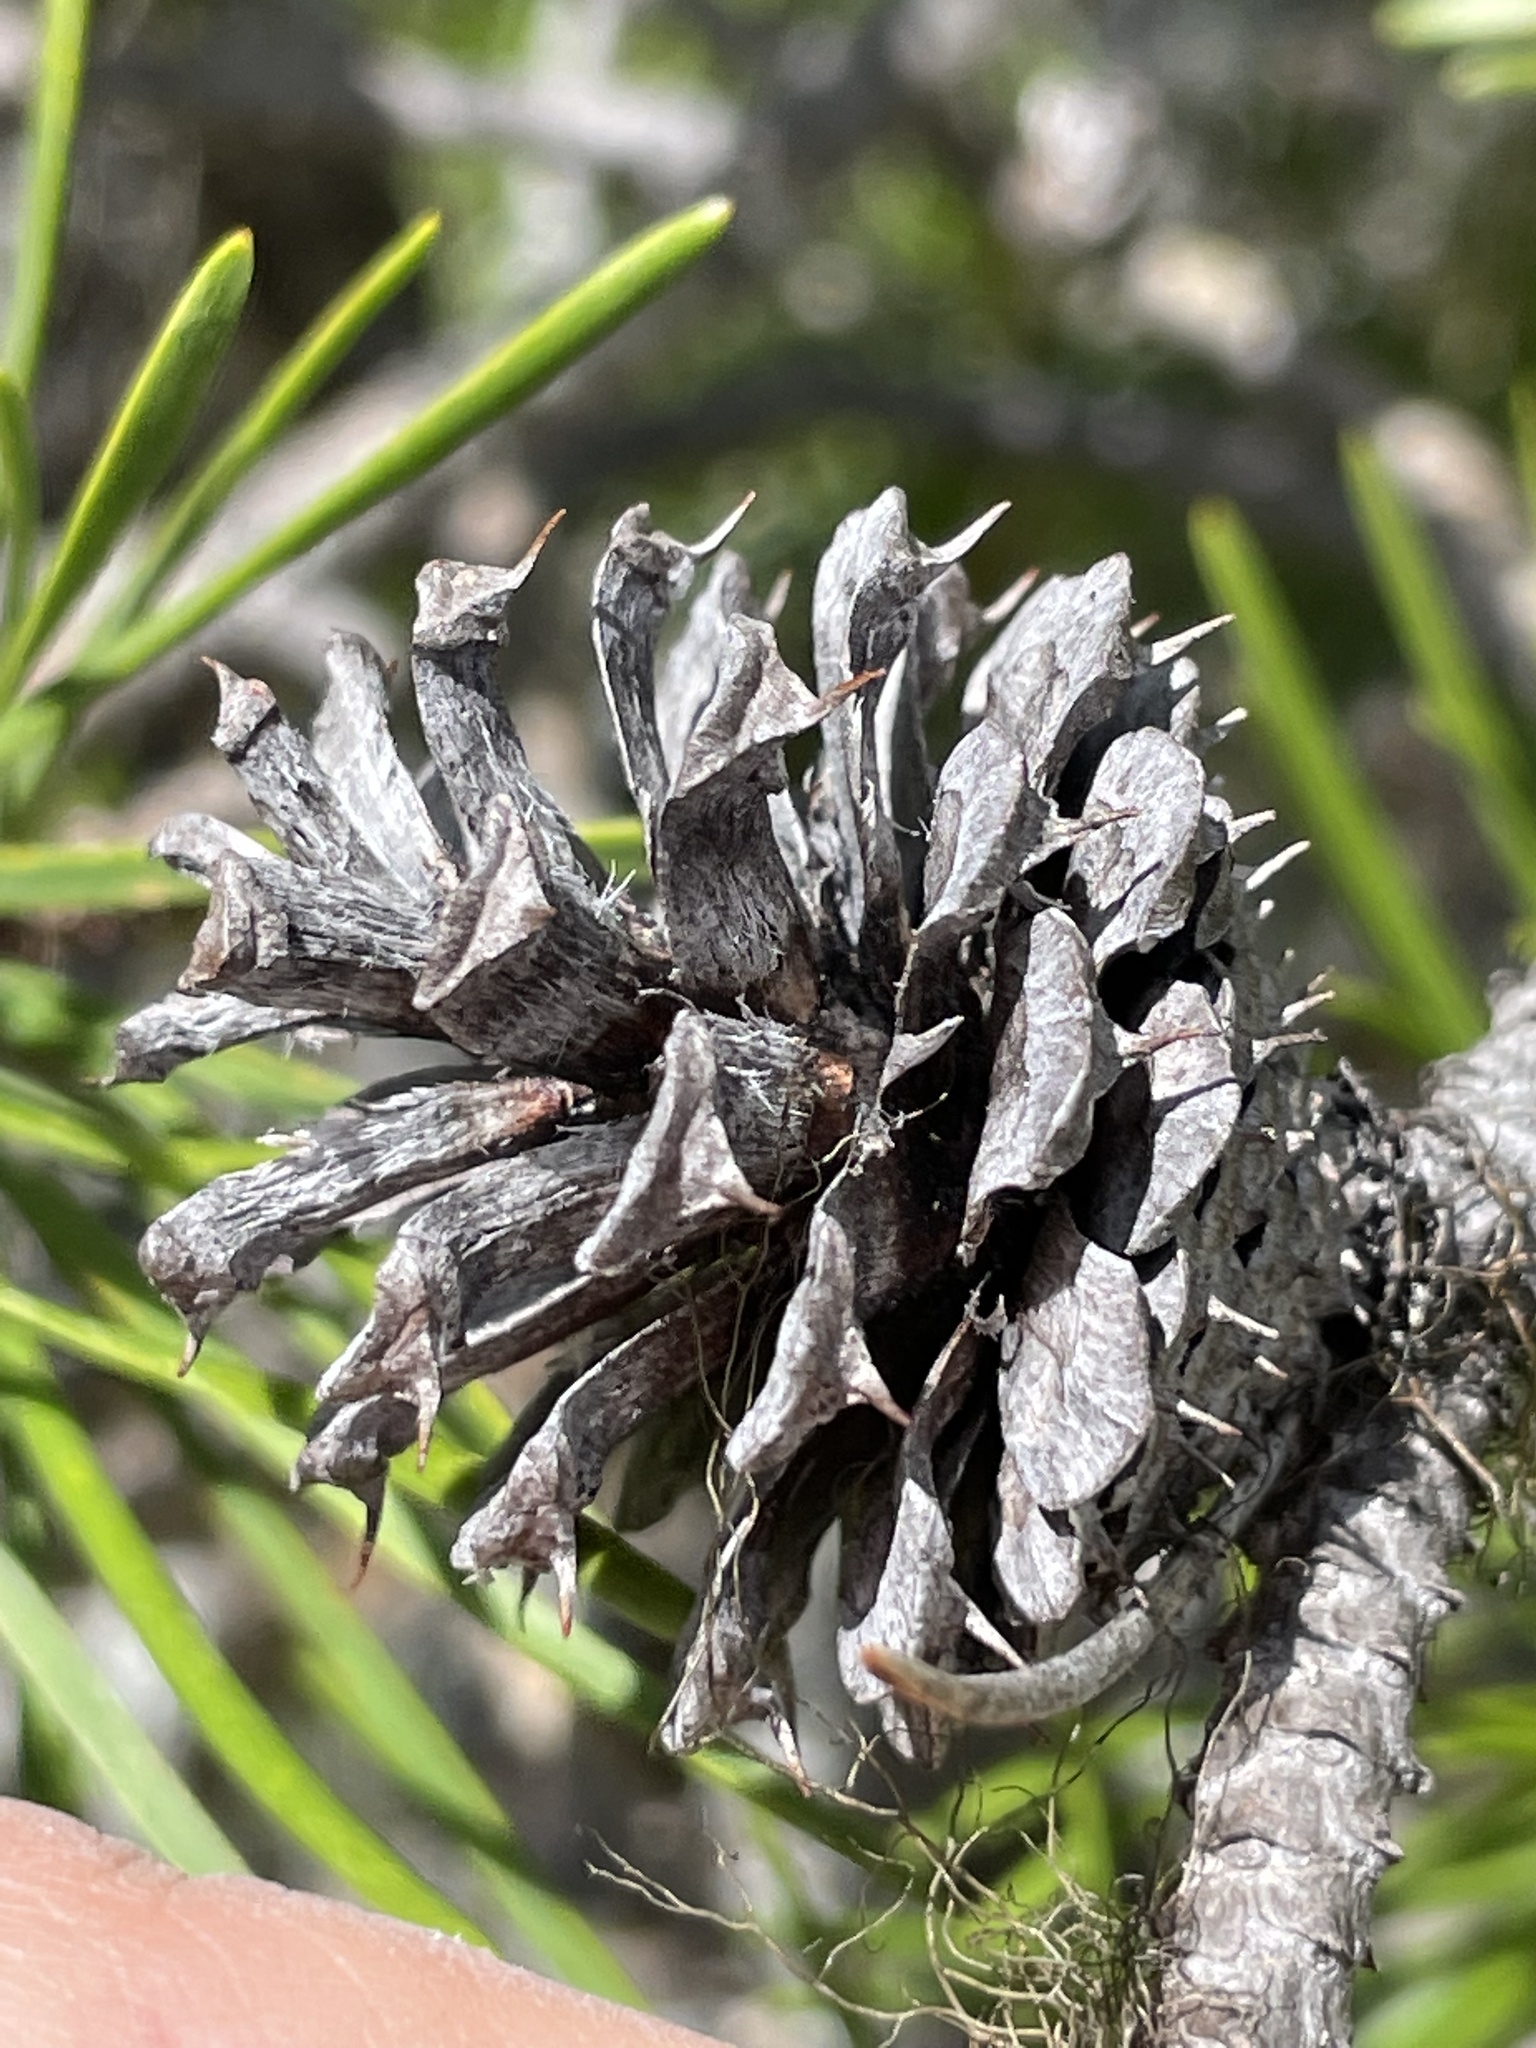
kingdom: Plantae
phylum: Tracheophyta
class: Pinopsida
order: Pinales
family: Pinaceae
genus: Pinus
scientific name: Pinus contorta
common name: Lodgepole pine
